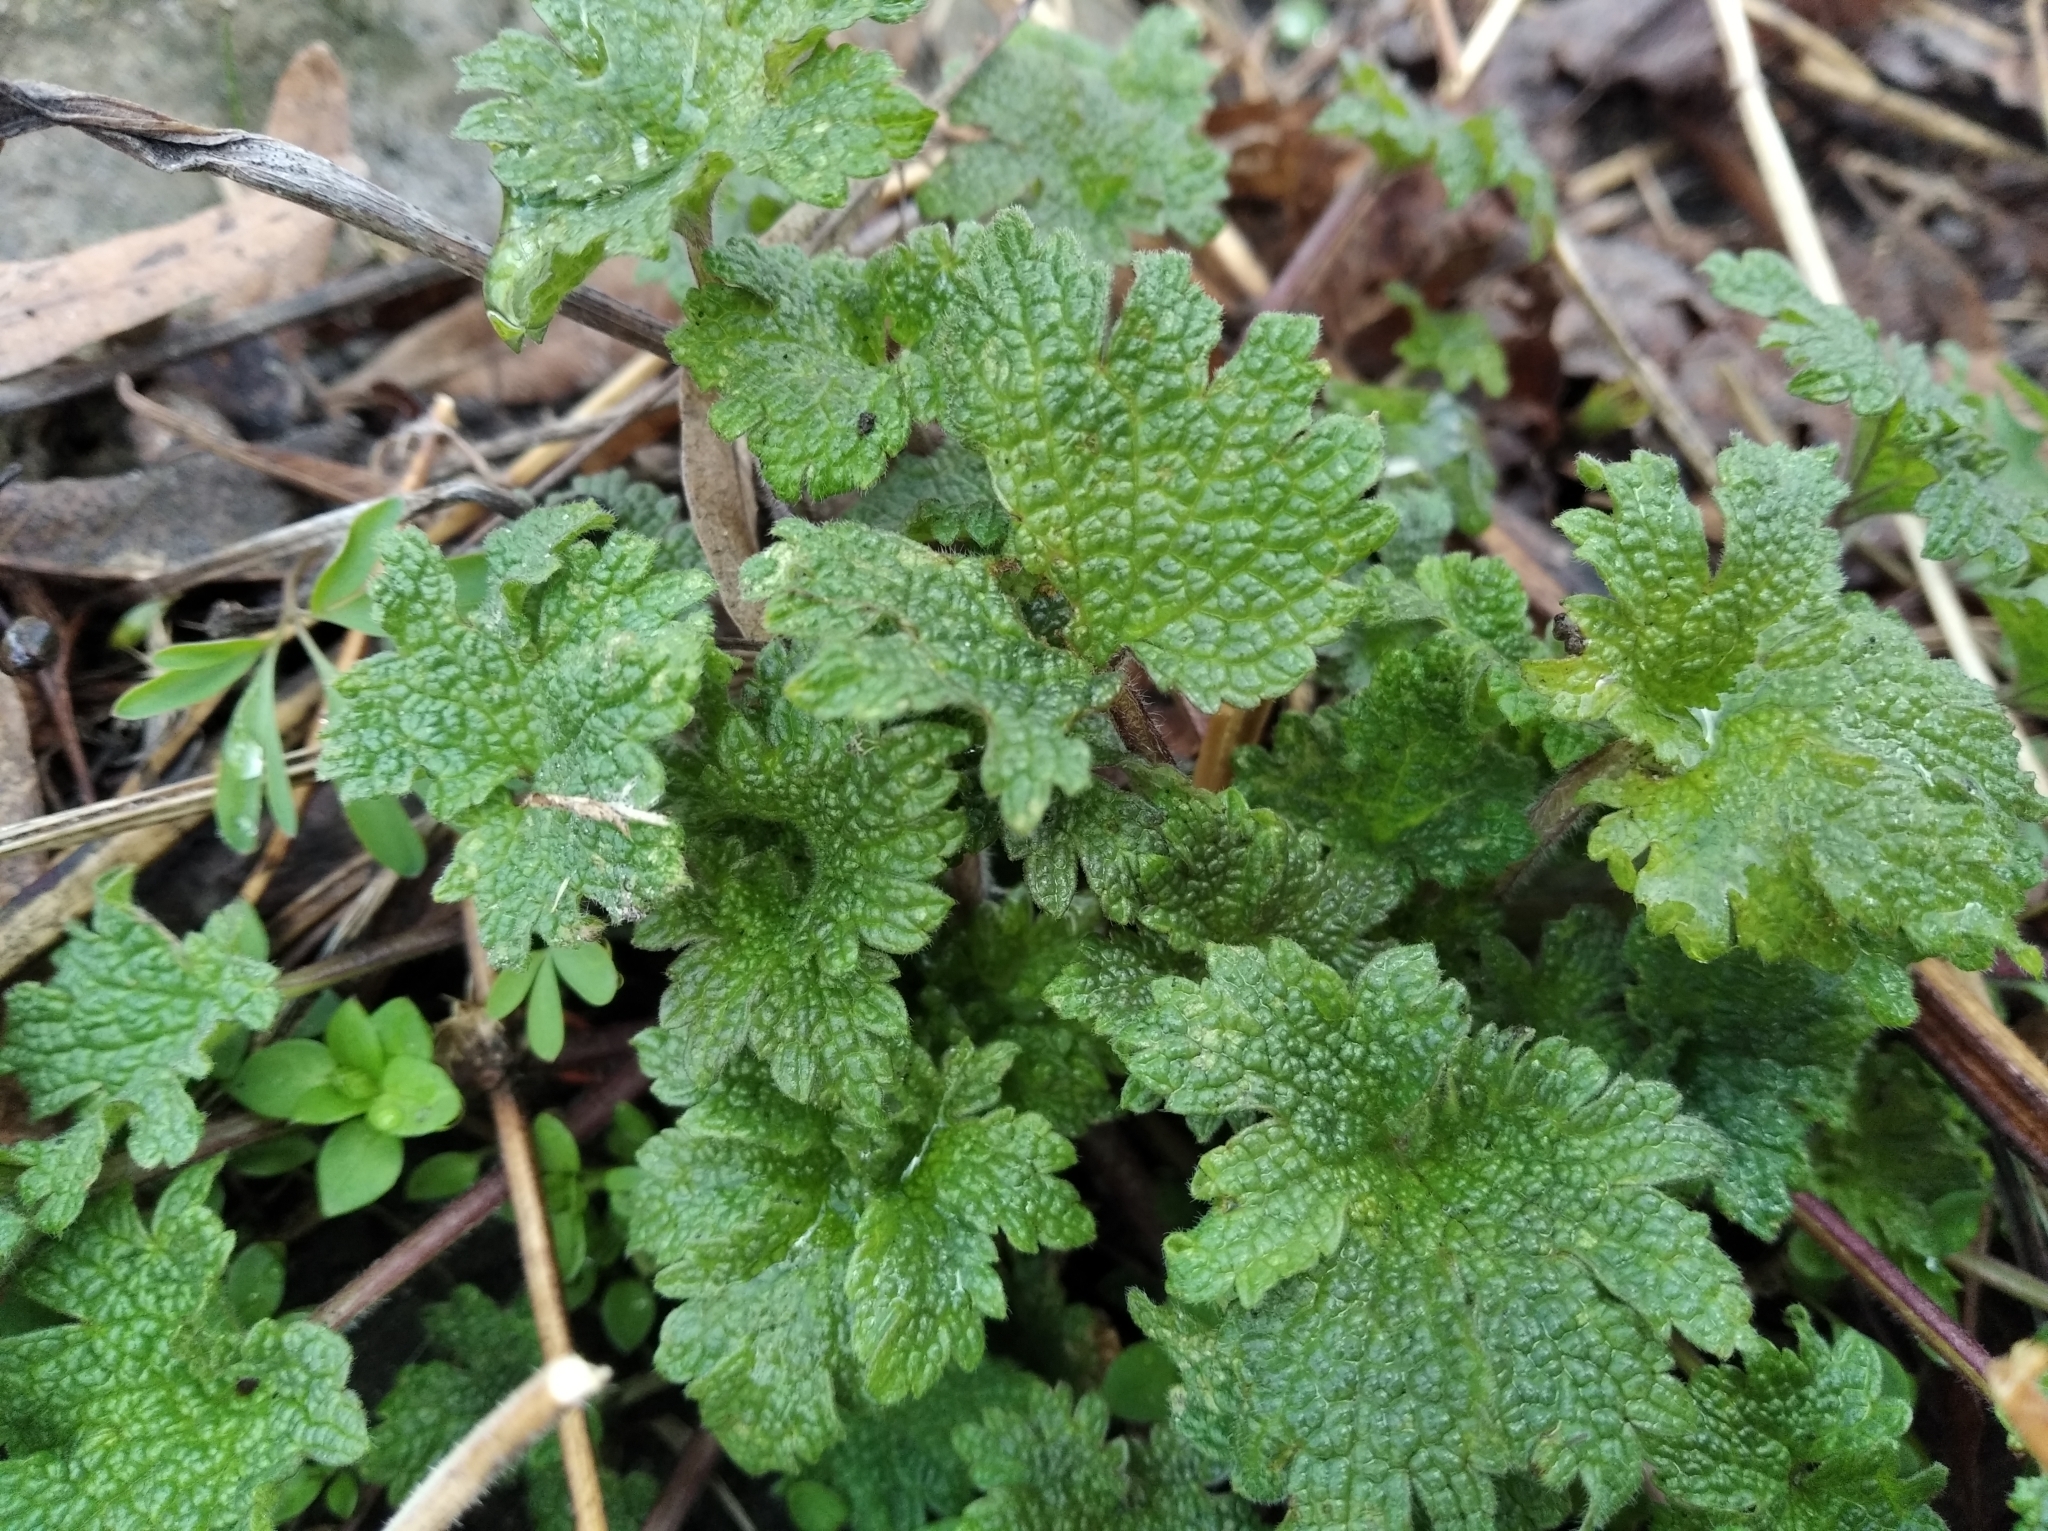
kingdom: Plantae
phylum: Tracheophyta
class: Magnoliopsida
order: Lamiales
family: Lamiaceae
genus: Leonurus
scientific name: Leonurus quinquelobatus
